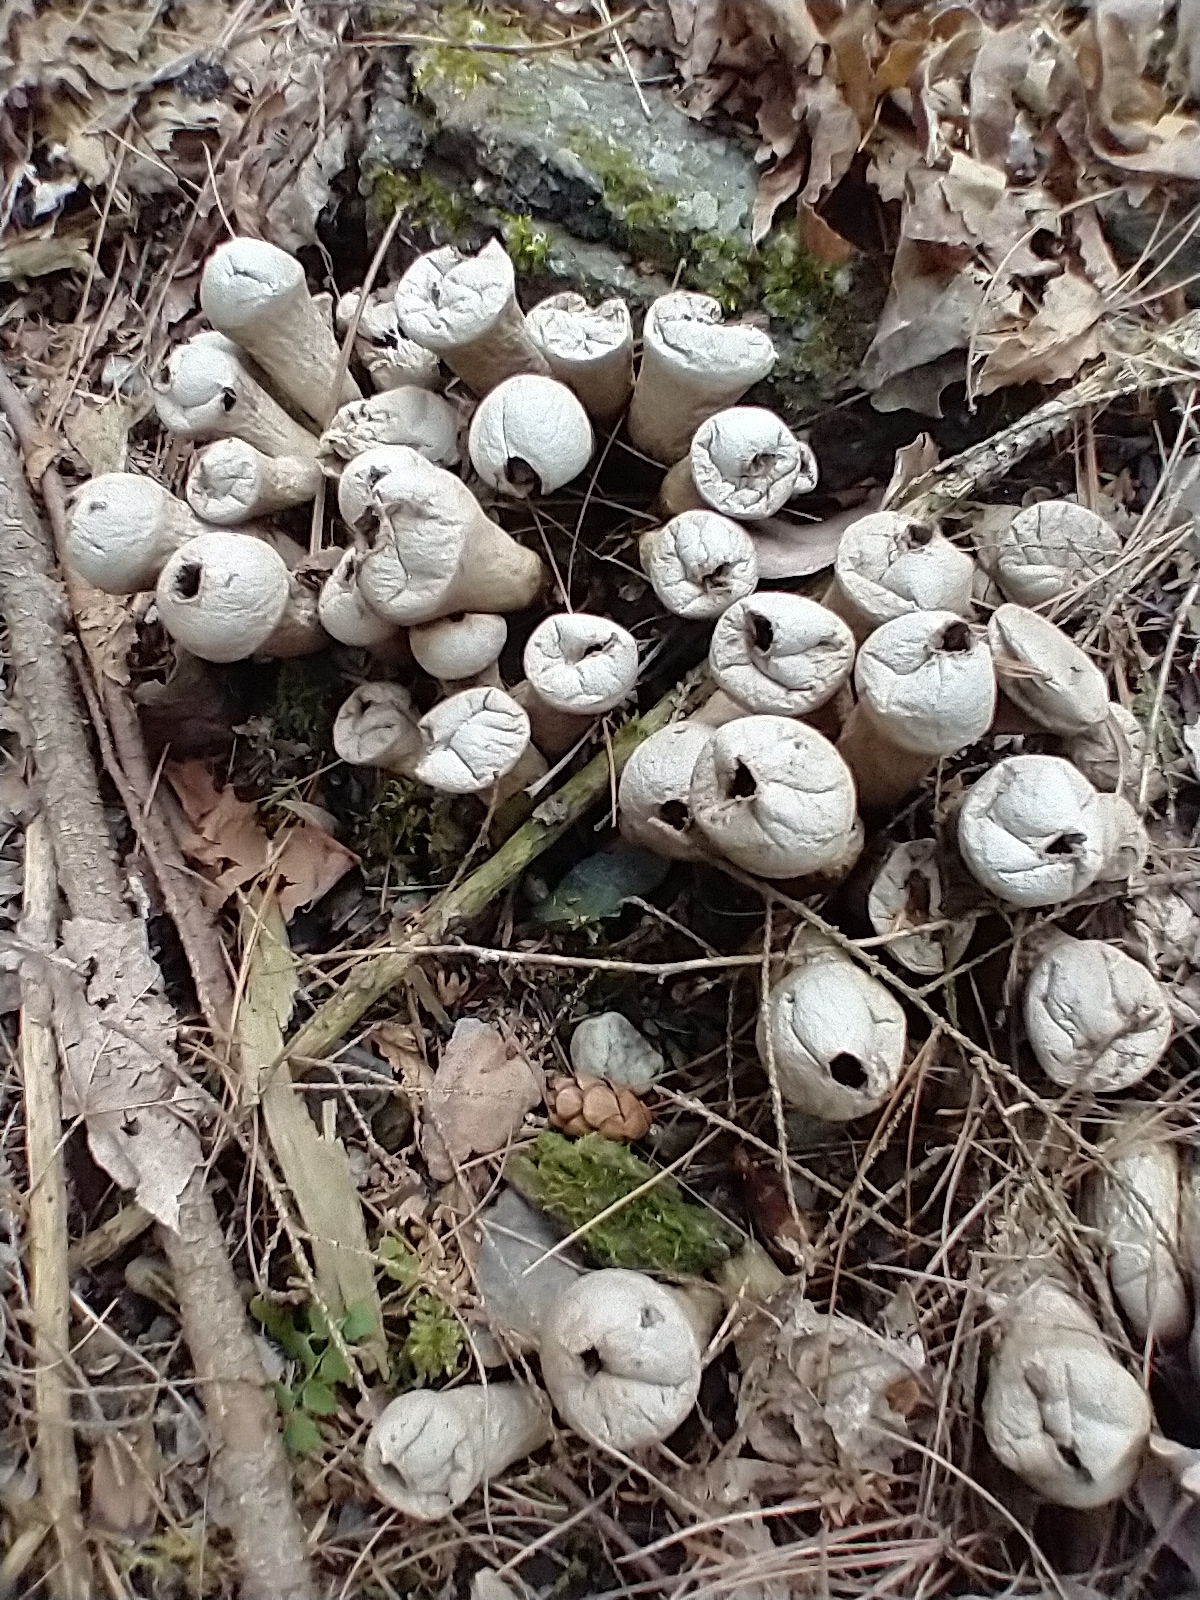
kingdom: Fungi
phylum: Basidiomycota
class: Agaricomycetes
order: Agaricales
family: Lycoperdaceae
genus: Apioperdon
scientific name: Apioperdon pyriforme
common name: Pear-shaped puffball
